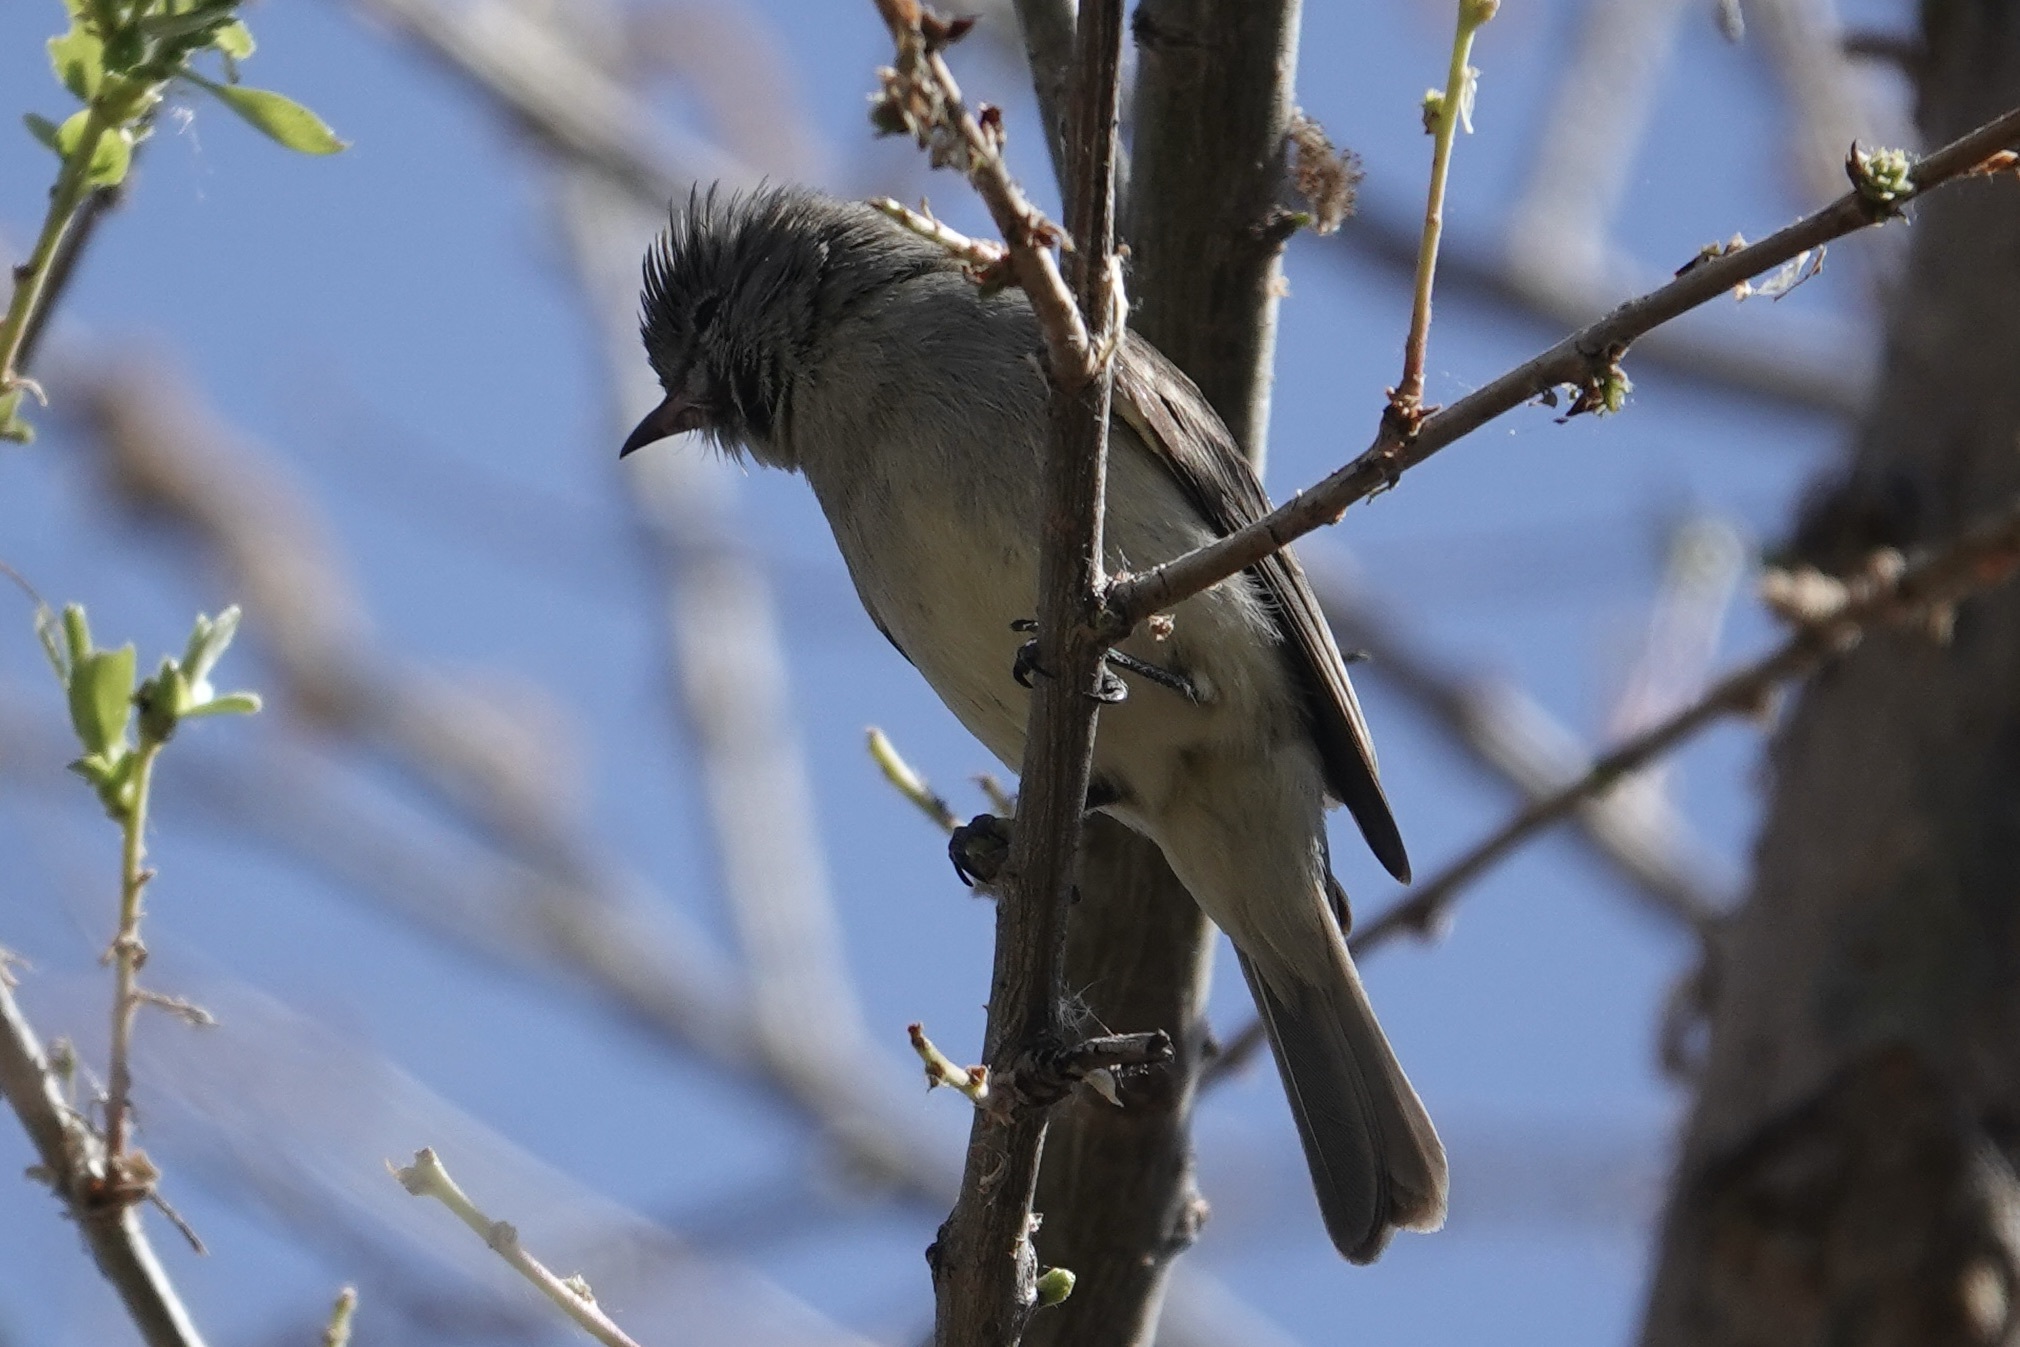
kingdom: Animalia
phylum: Chordata
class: Aves
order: Passeriformes
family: Tyrannidae
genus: Camptostoma
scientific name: Camptostoma imberbe
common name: Northern beardless-tyrannulet
